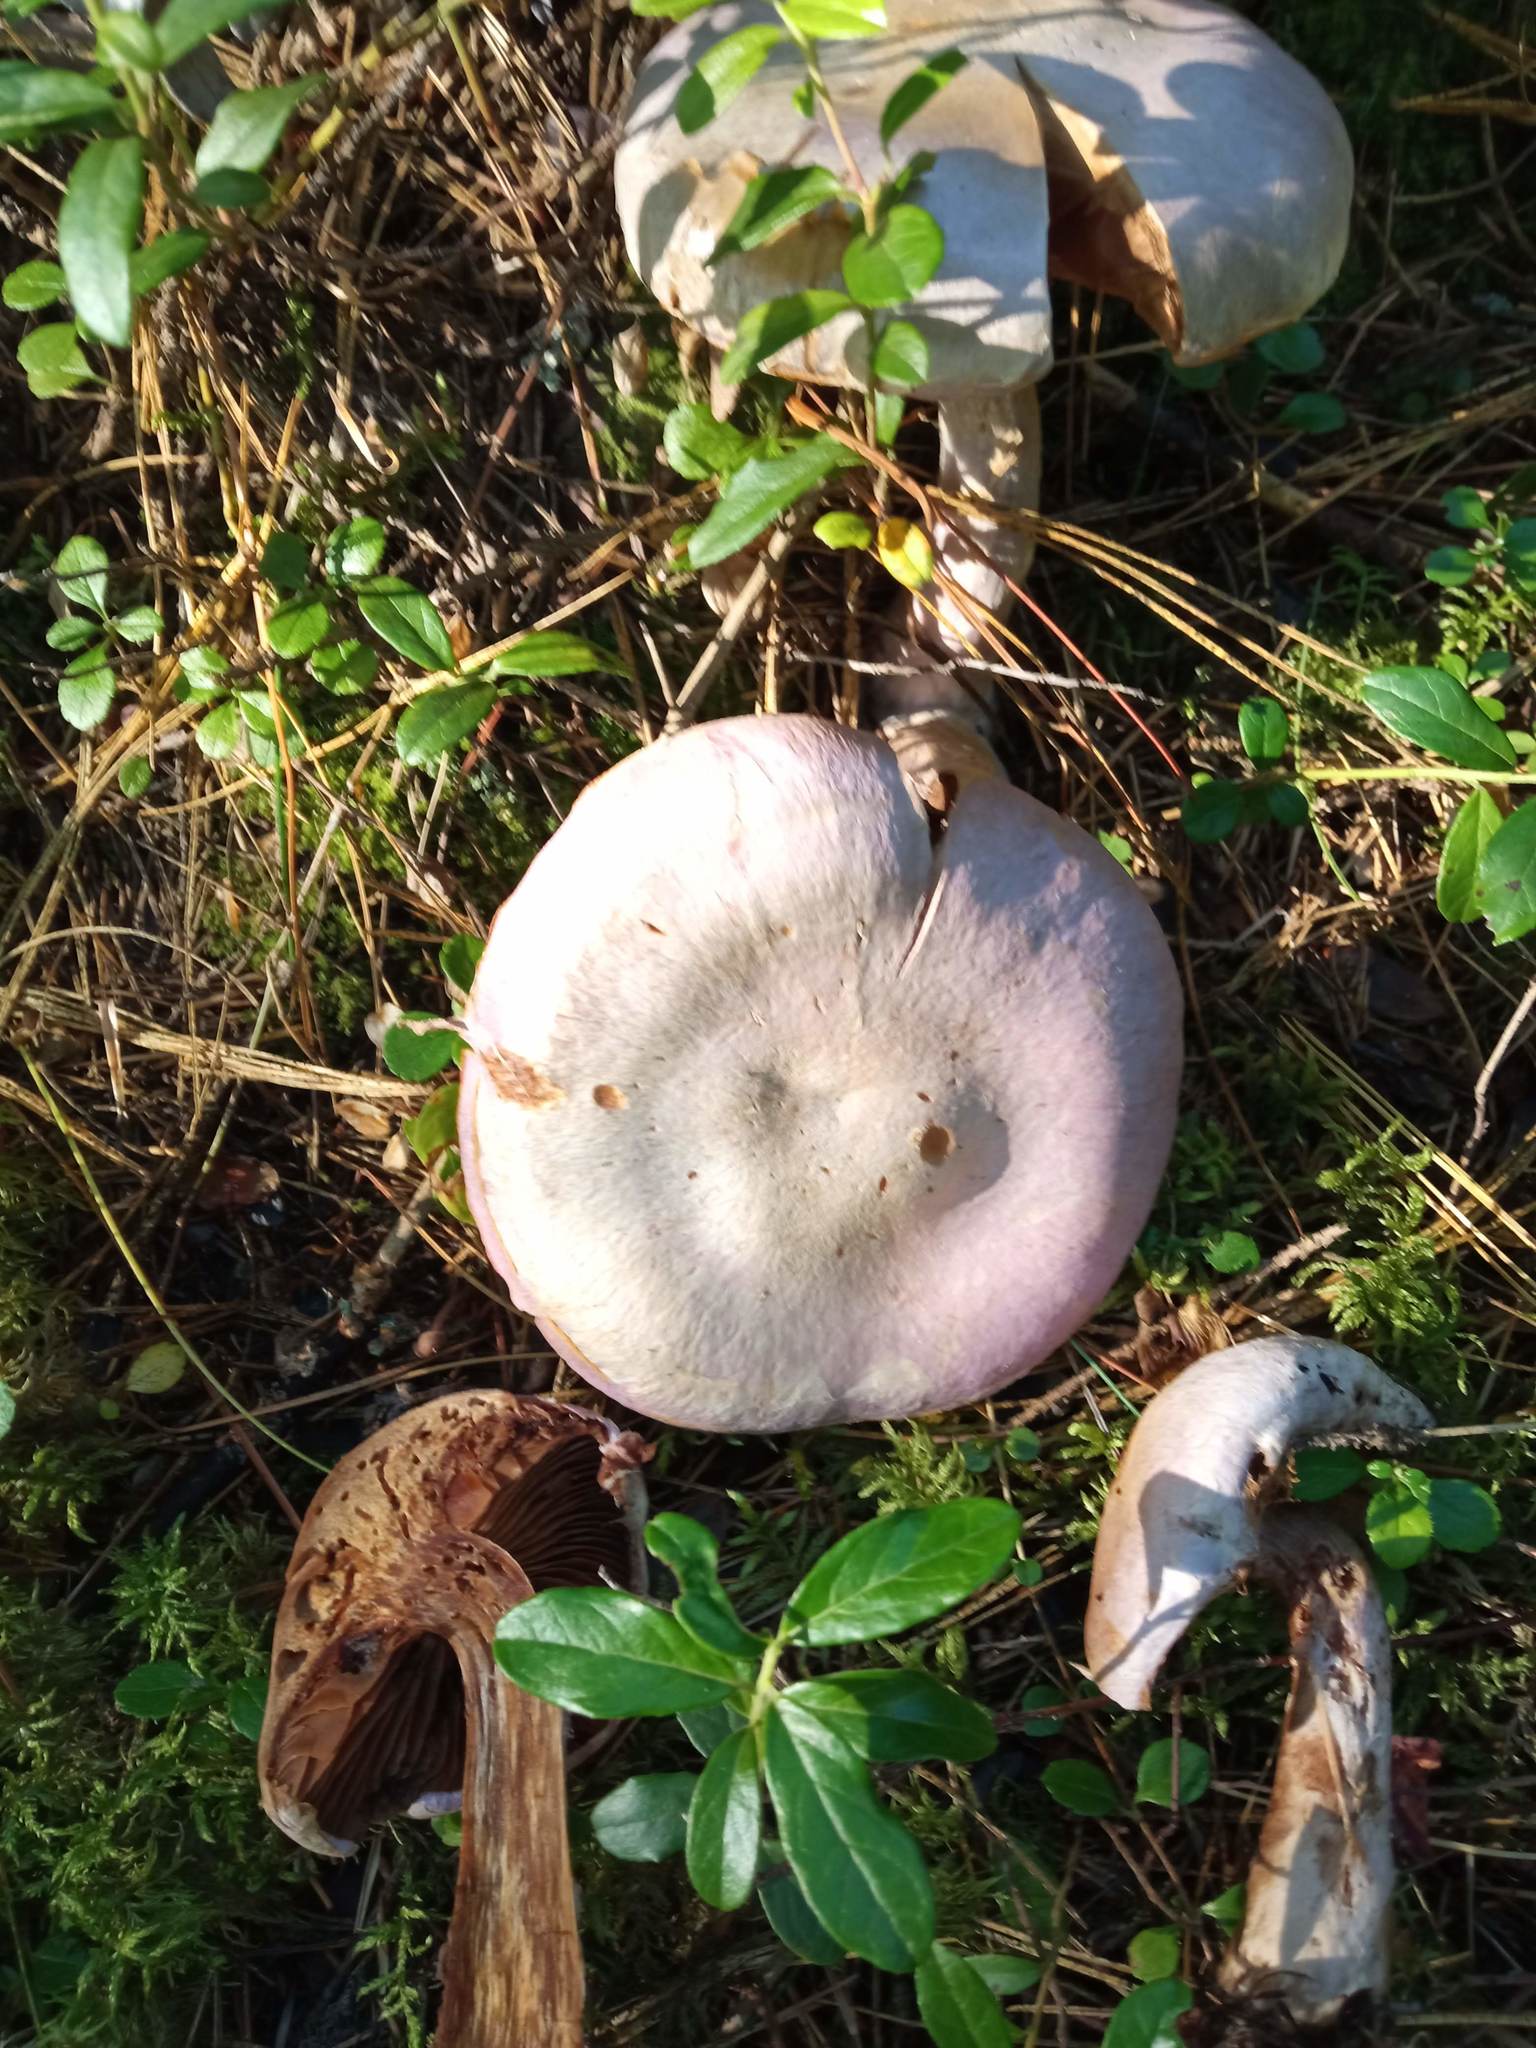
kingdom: Fungi
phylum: Basidiomycota
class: Agaricomycetes
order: Agaricales
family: Cortinariaceae
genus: Cortinarius
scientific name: Cortinarius camphoratus
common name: Goatcheese webcap
